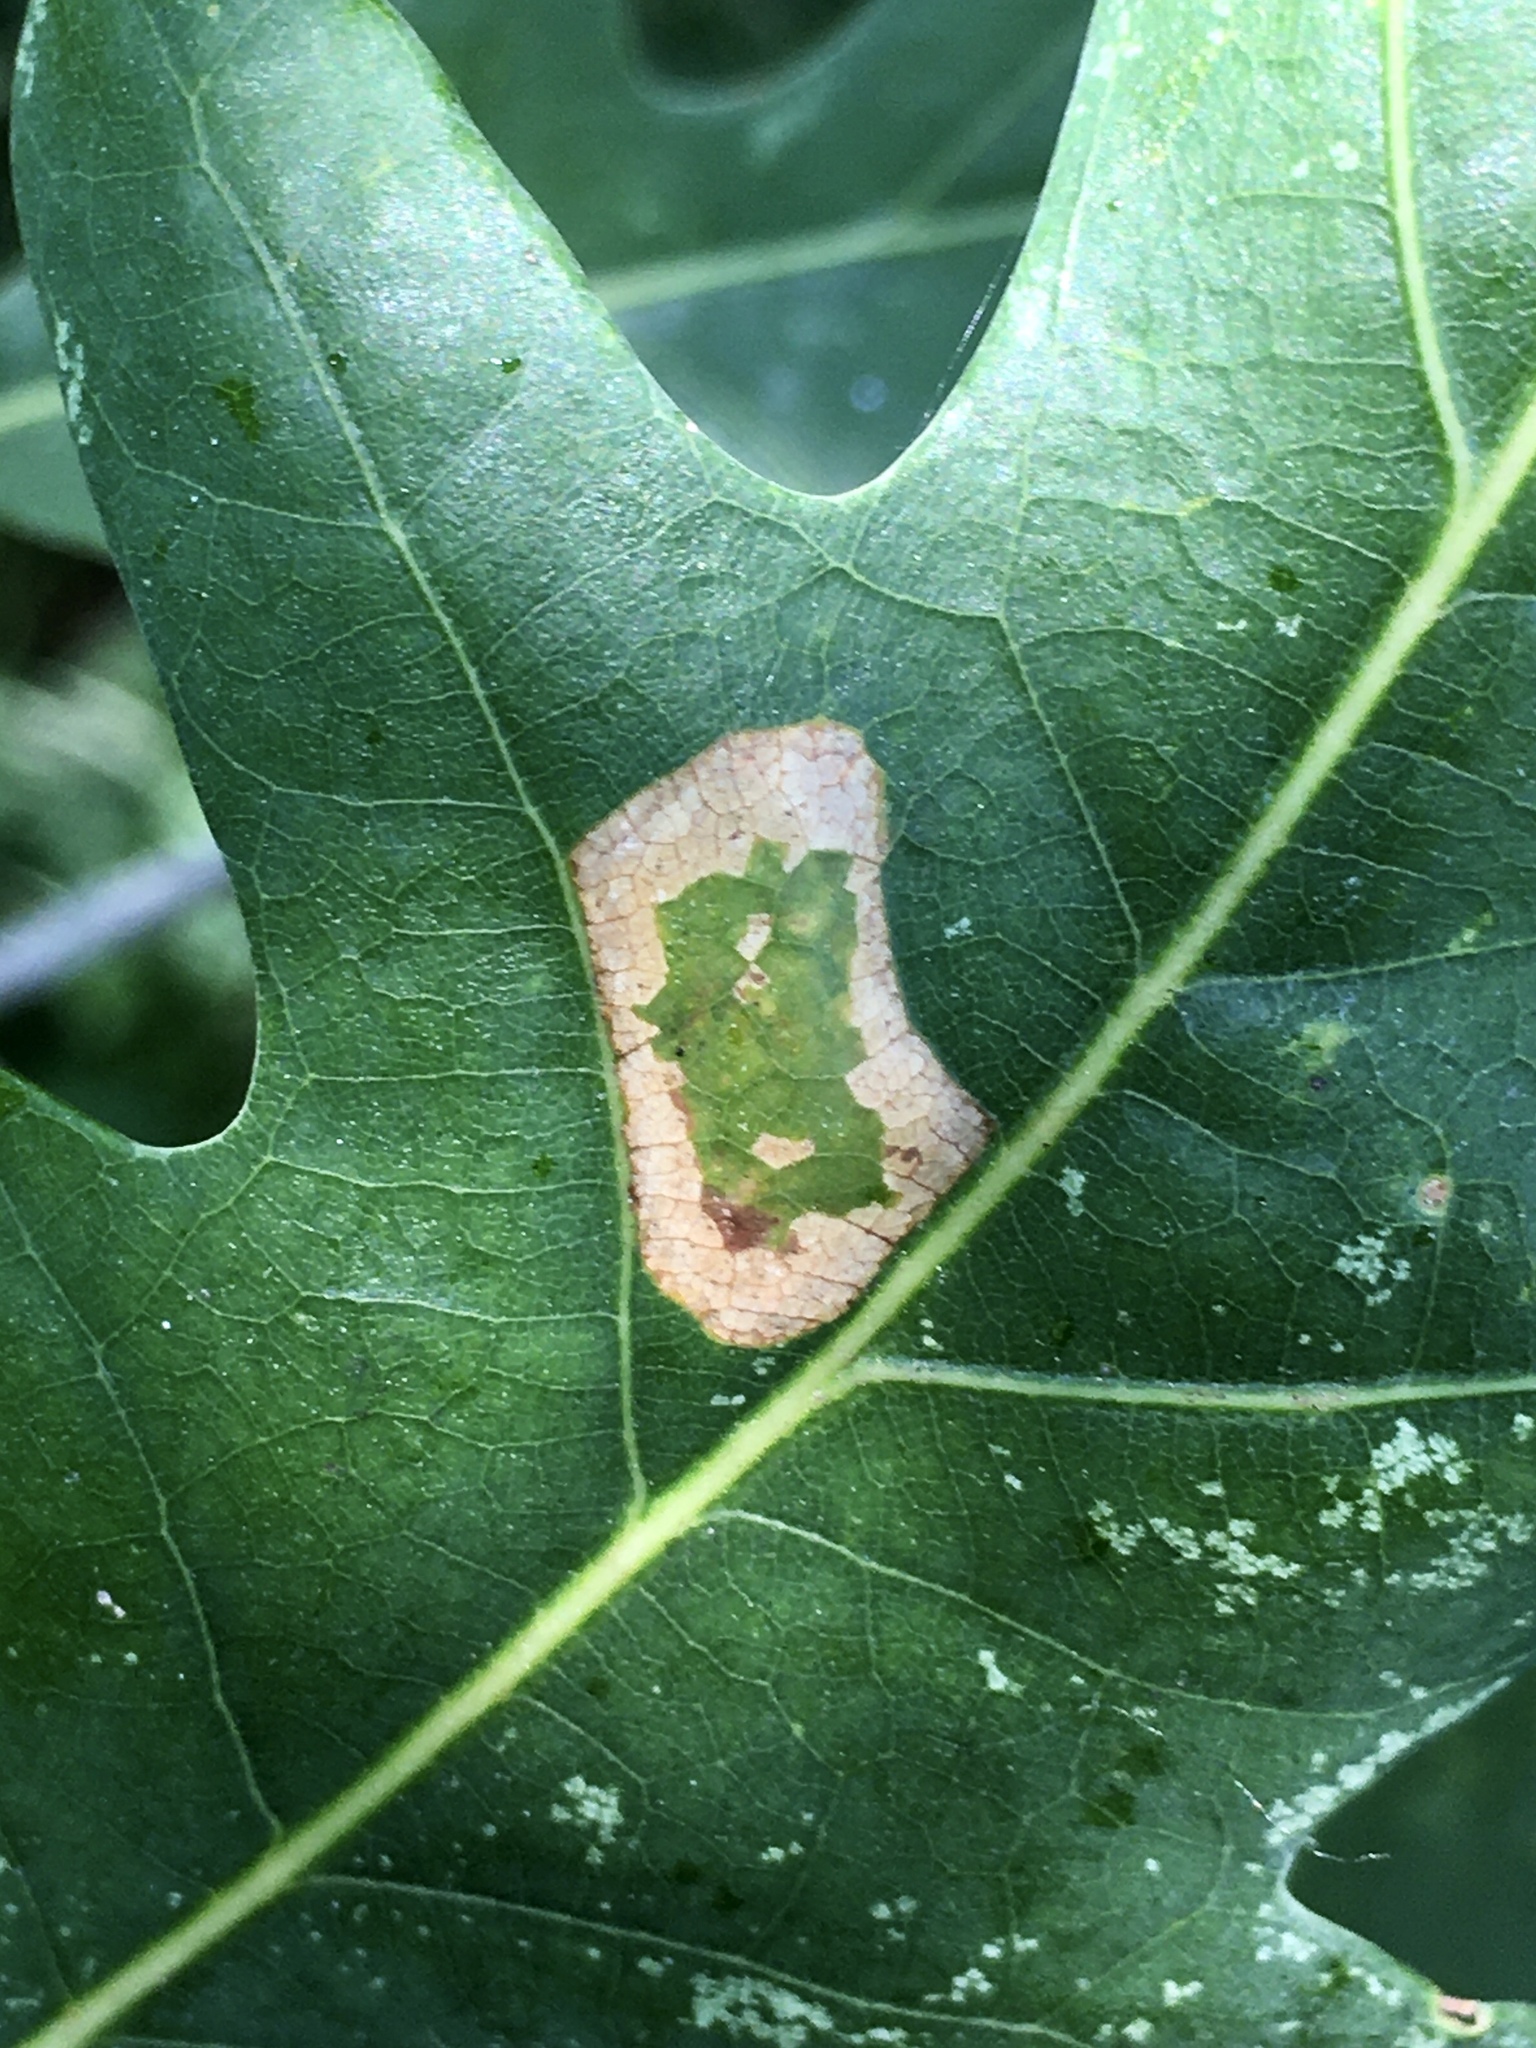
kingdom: Animalia
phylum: Arthropoda
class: Insecta
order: Lepidoptera
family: Gracillariidae
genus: Phyllonorycter
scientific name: Phyllonorycter
